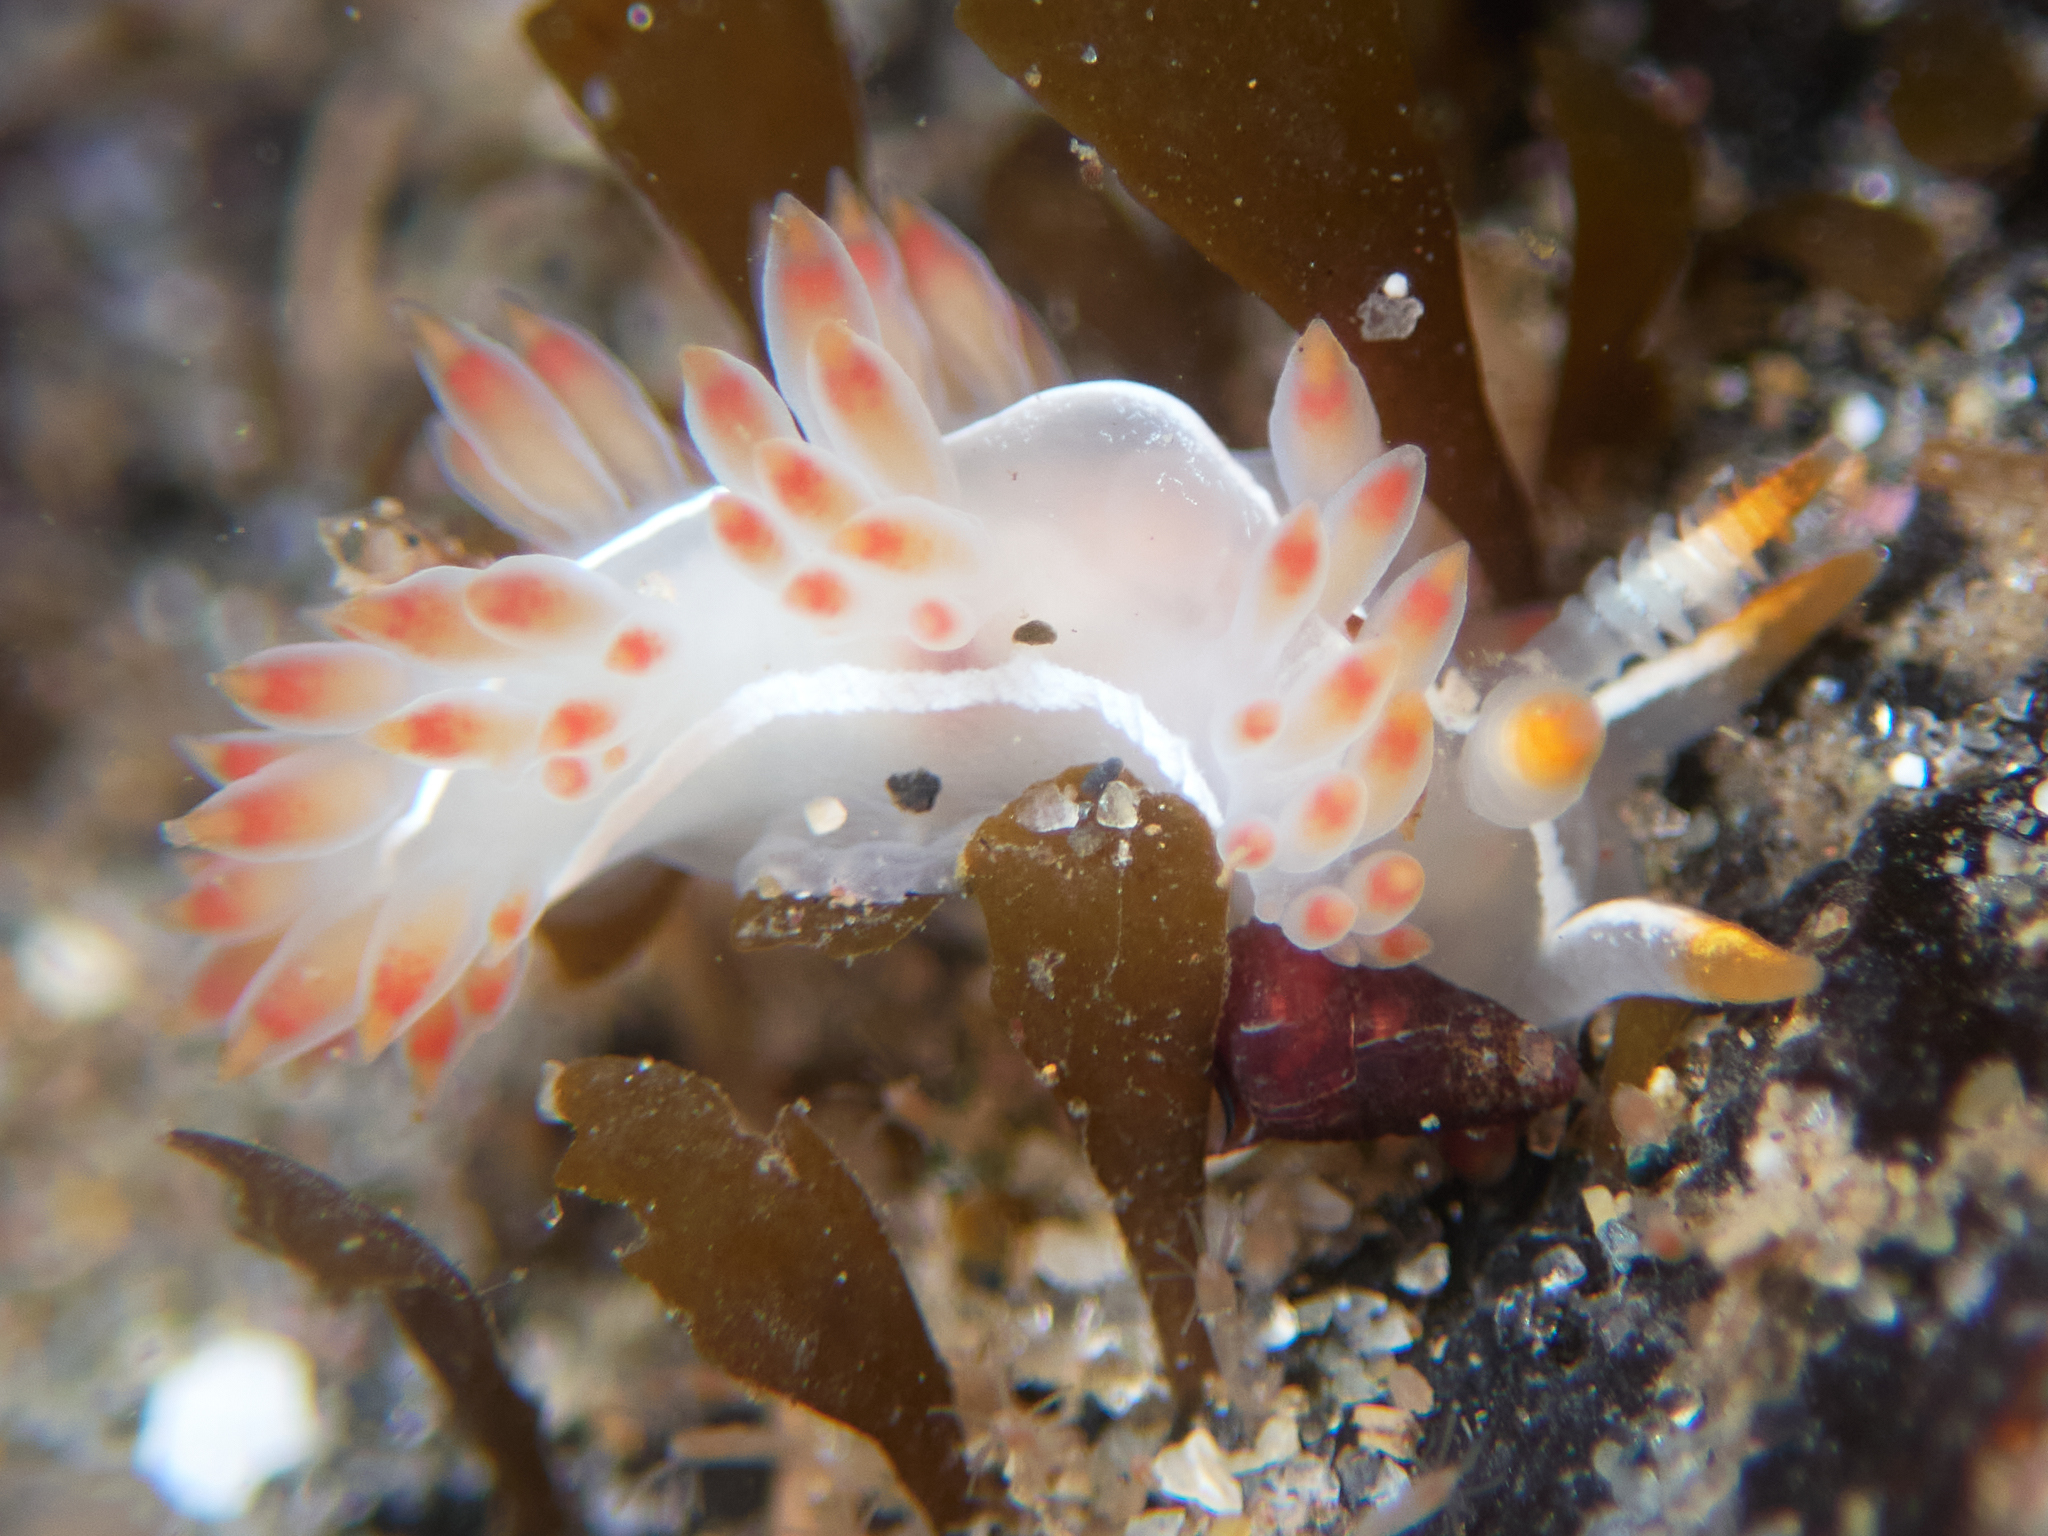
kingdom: Animalia
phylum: Mollusca
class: Gastropoda
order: Nudibranchia
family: Coryphellidae
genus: Coryphella
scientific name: Coryphella trilineata
